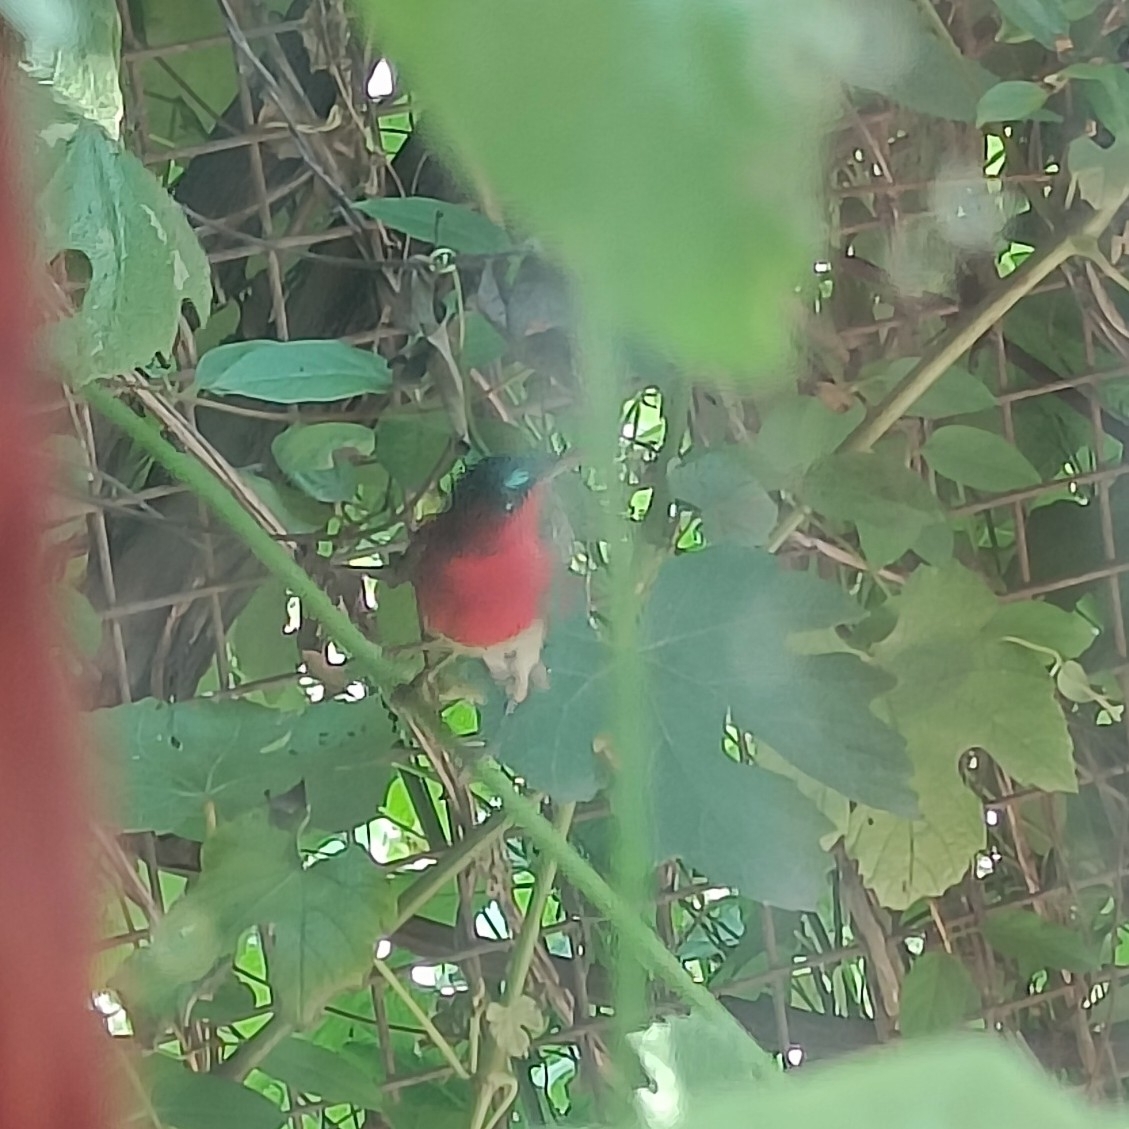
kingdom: Animalia
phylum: Chordata
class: Aves
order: Passeriformes
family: Nectariniidae
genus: Aethopyga
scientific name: Aethopyga siparaja
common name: Crimson sunbird
